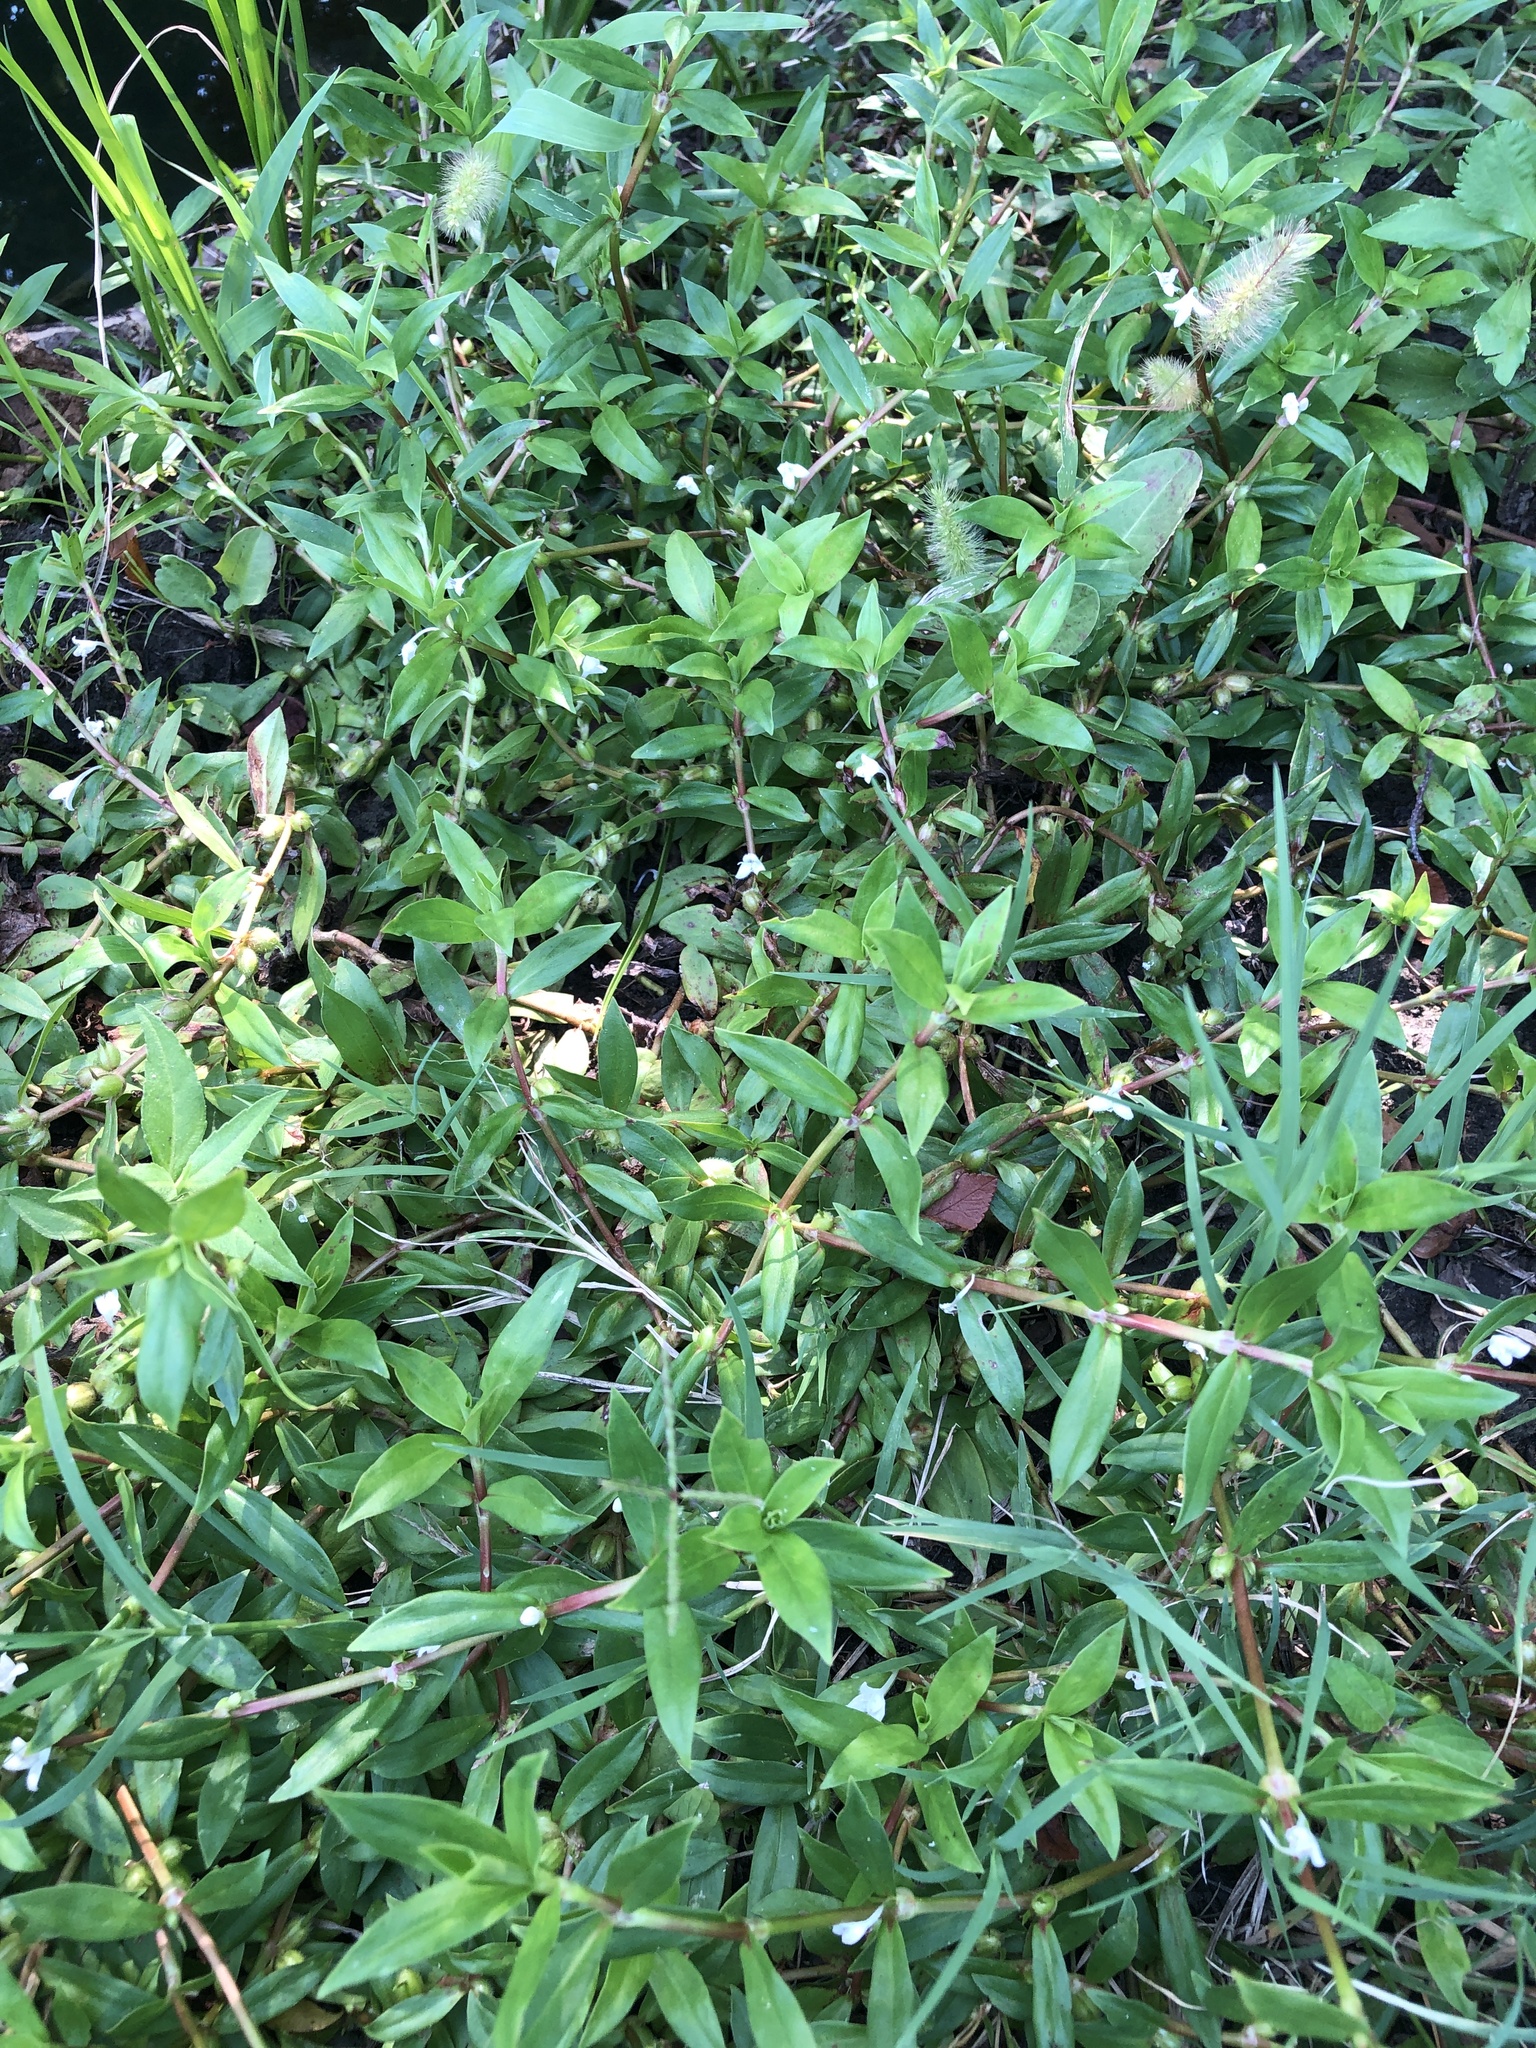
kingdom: Plantae
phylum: Tracheophyta
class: Magnoliopsida
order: Gentianales
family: Rubiaceae
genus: Diodia
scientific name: Diodia virginiana
